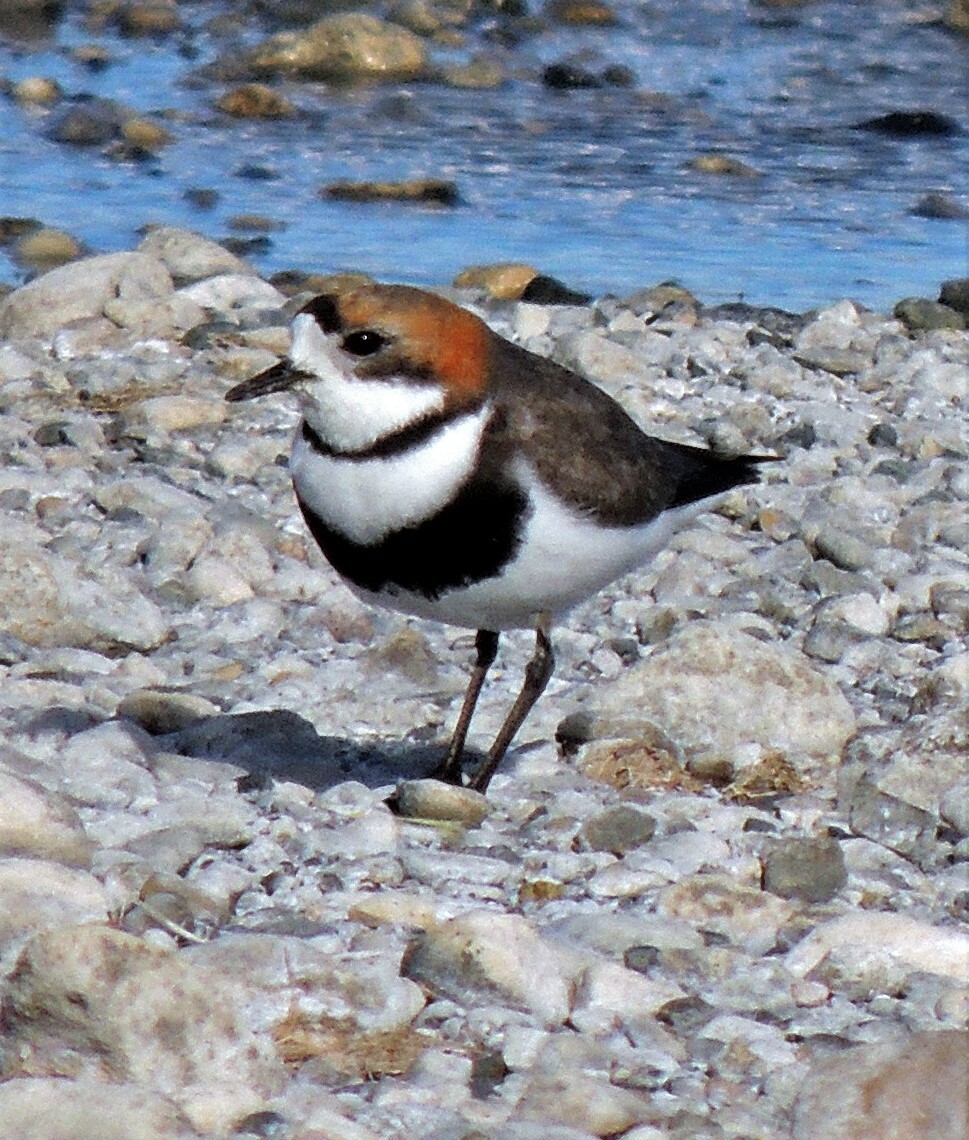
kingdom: Animalia
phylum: Chordata
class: Aves
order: Charadriiformes
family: Charadriidae
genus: Anarhynchus
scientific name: Anarhynchus
